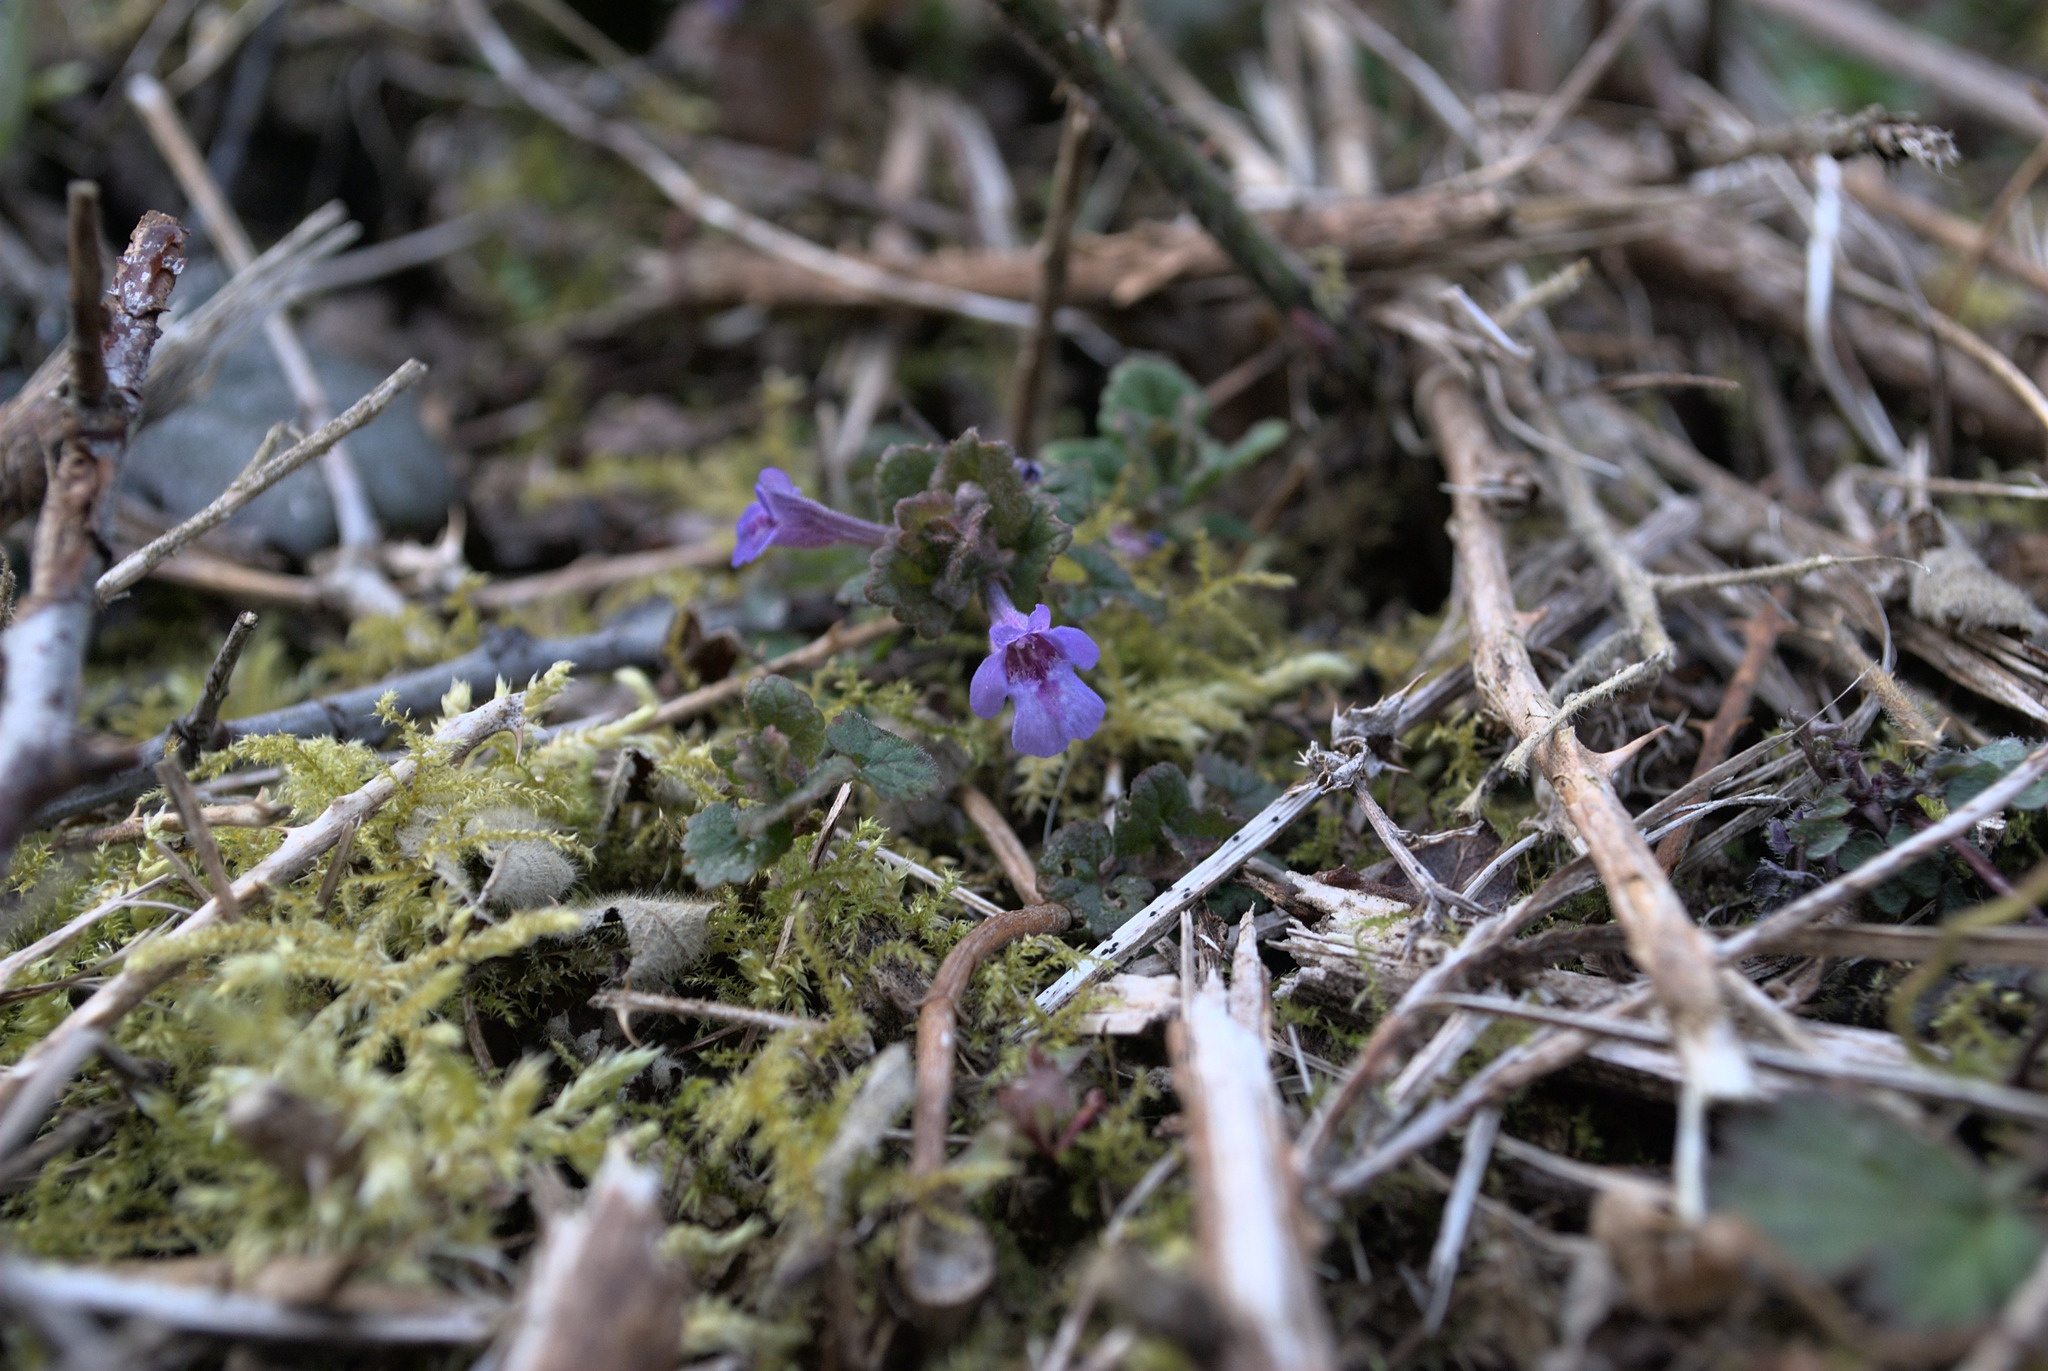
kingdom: Plantae
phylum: Tracheophyta
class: Magnoliopsida
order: Lamiales
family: Lamiaceae
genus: Glechoma
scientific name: Glechoma hederacea
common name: Ground ivy
